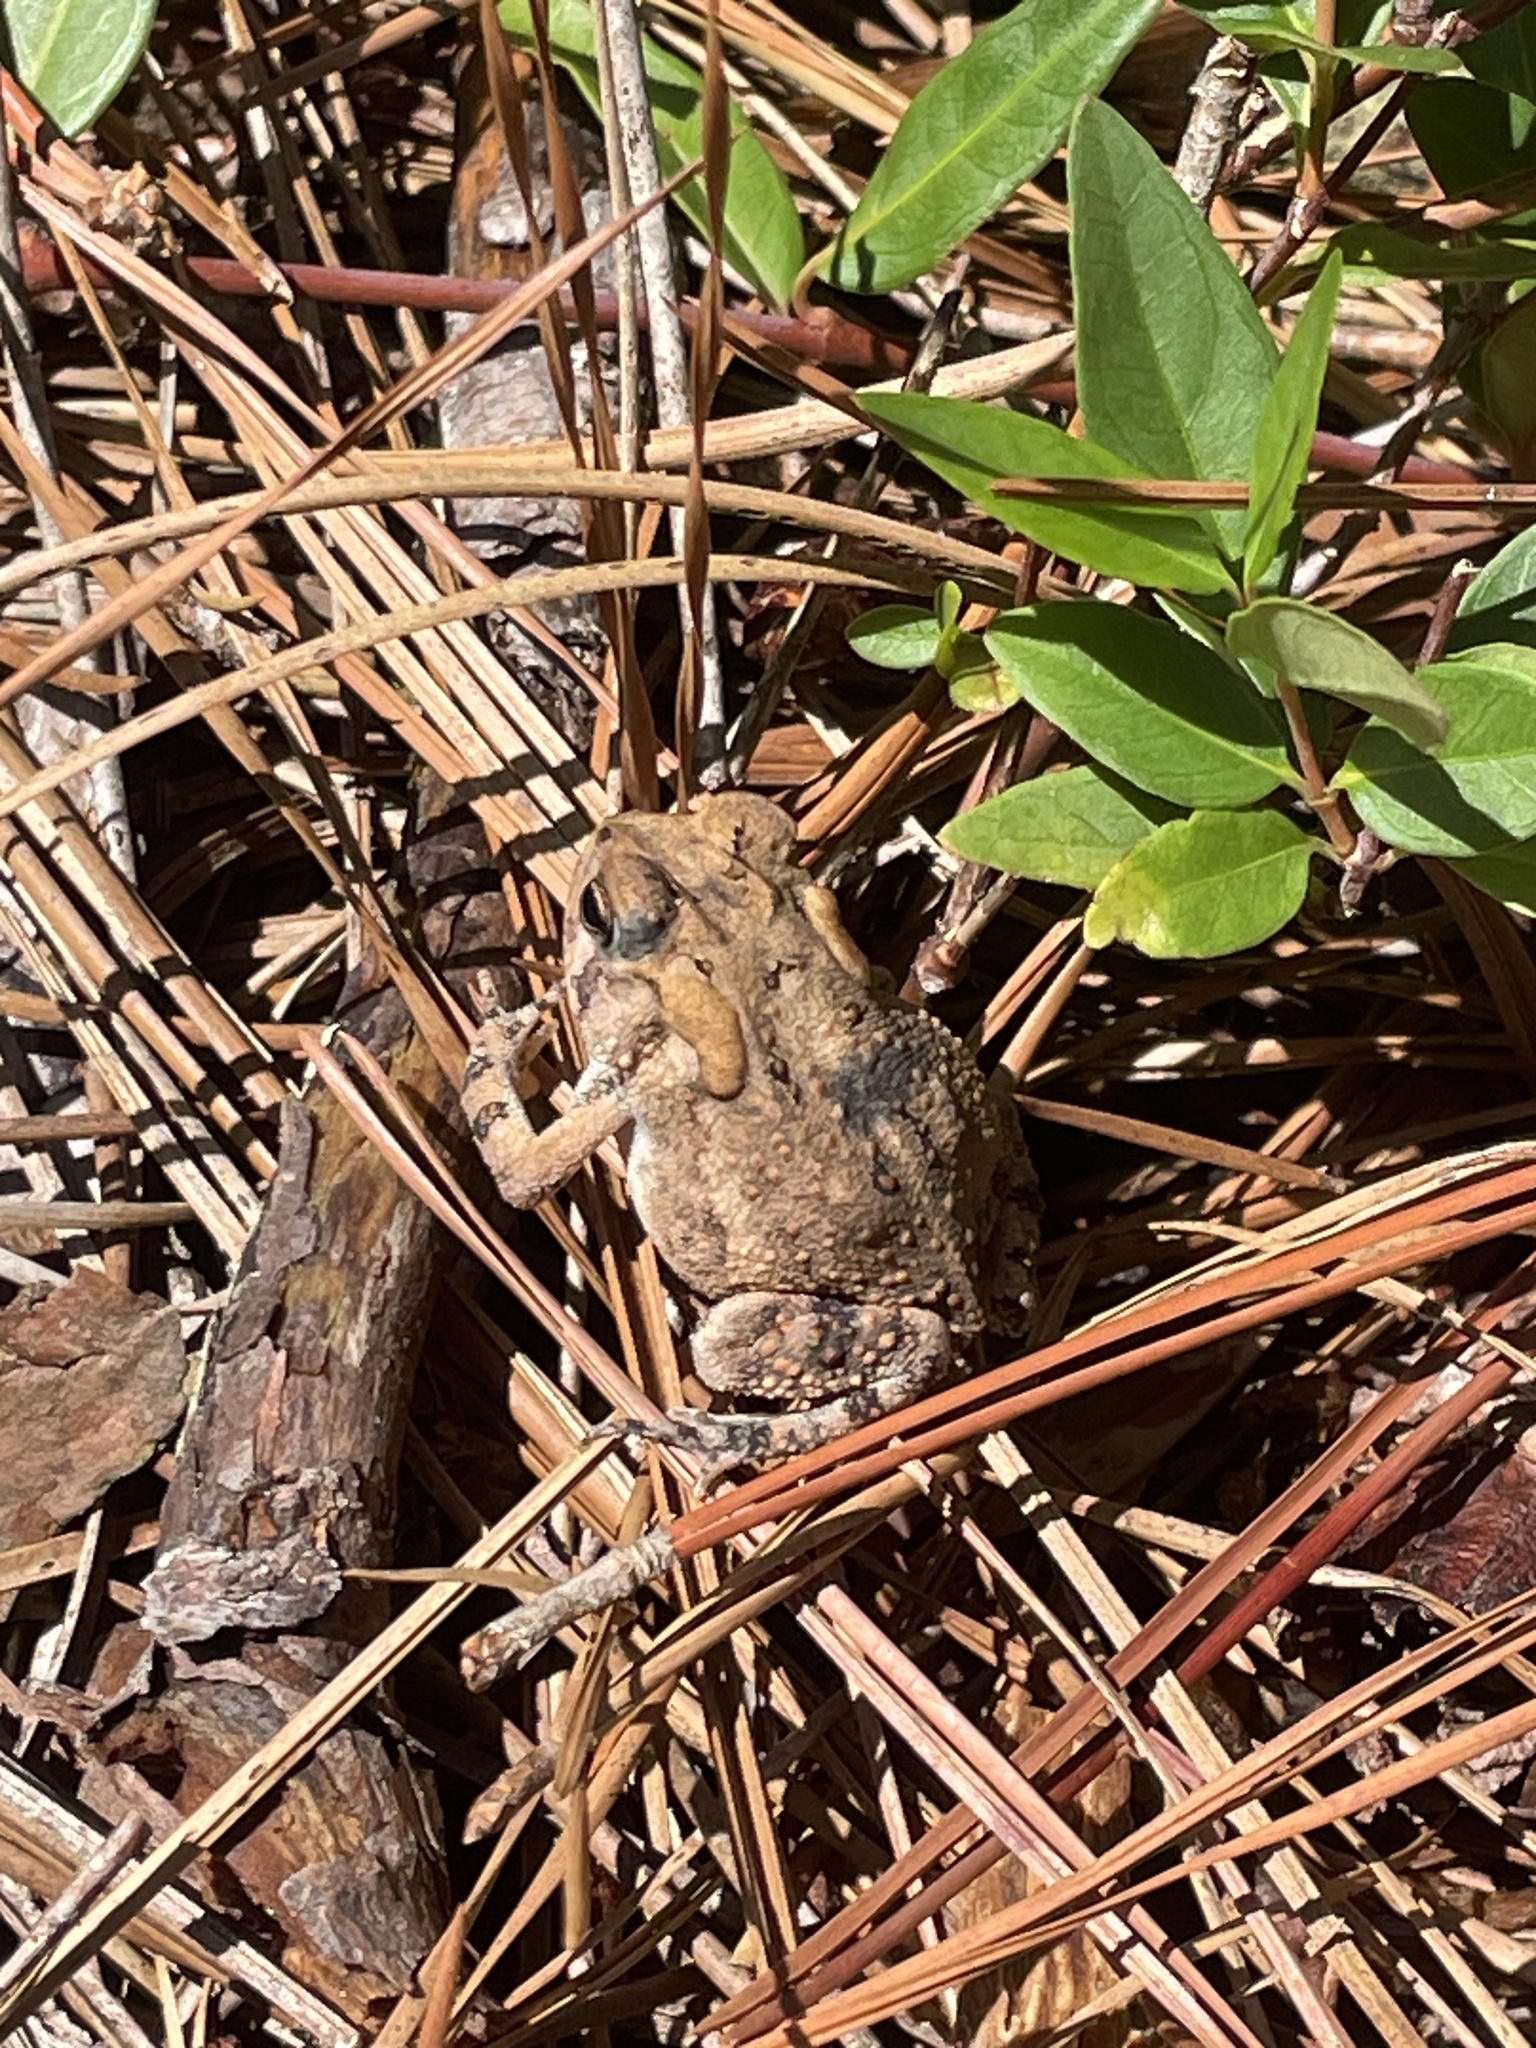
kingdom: Animalia
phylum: Chordata
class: Amphibia
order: Anura
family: Bufonidae
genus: Anaxyrus
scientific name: Anaxyrus terrestris
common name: Southern toad
